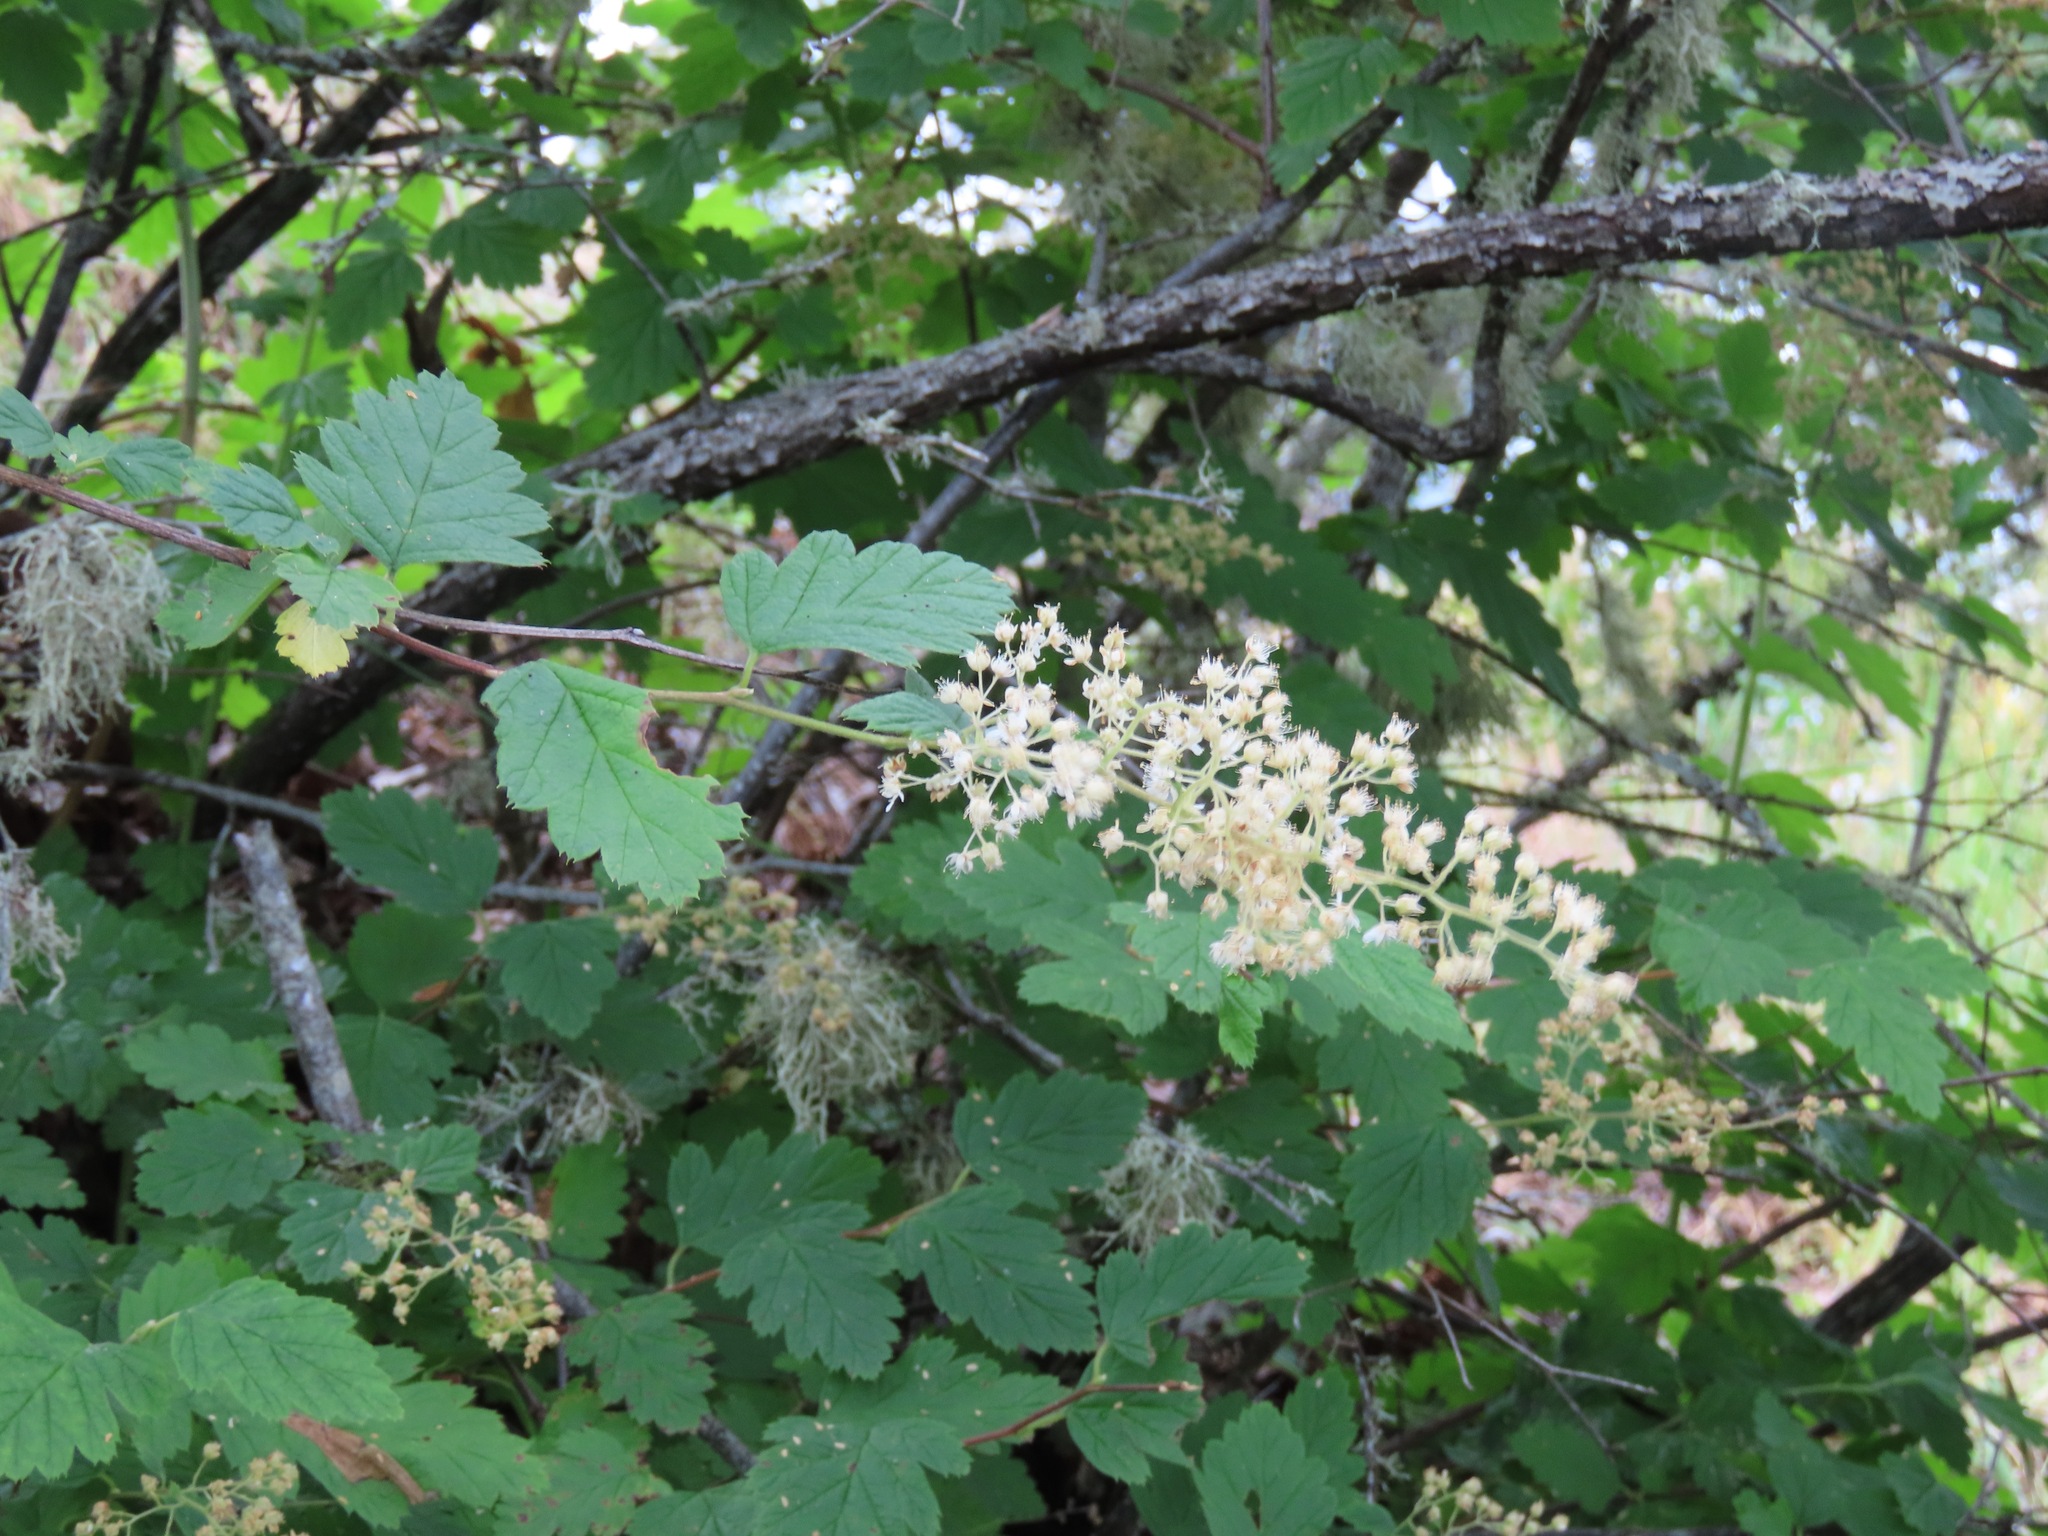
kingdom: Plantae
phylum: Tracheophyta
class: Magnoliopsida
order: Rosales
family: Rosaceae
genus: Holodiscus
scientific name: Holodiscus discolor
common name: Oceanspray
